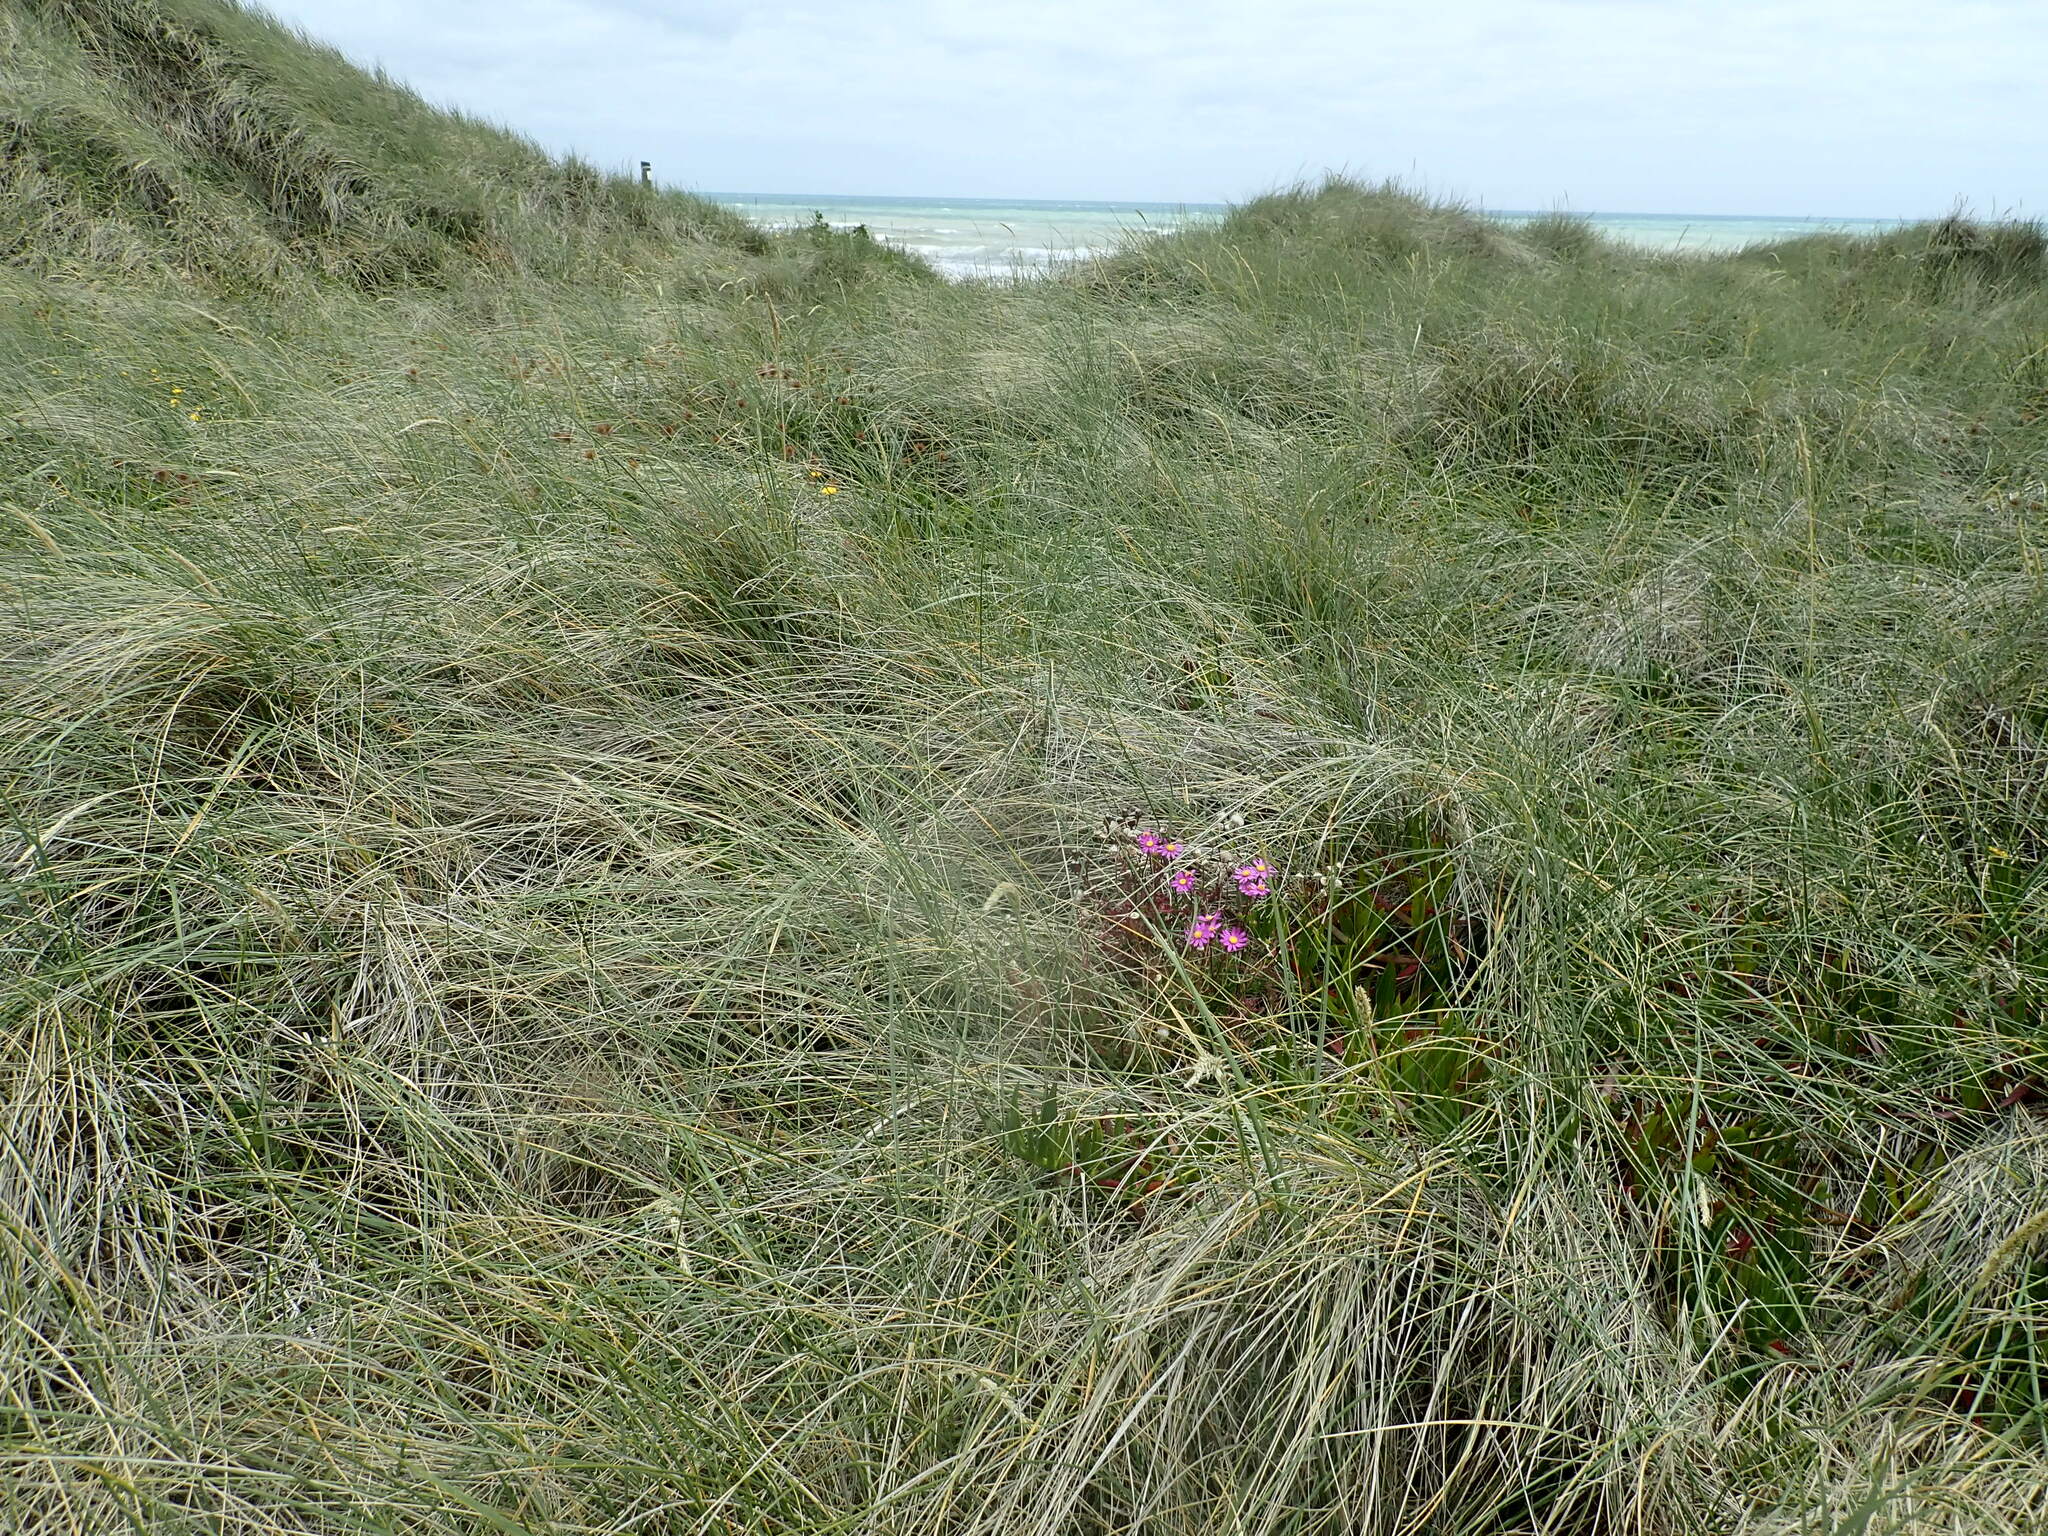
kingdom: Plantae
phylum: Tracheophyta
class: Magnoliopsida
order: Asterales
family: Asteraceae
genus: Senecio
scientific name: Senecio elegans
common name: Purple groundsel
